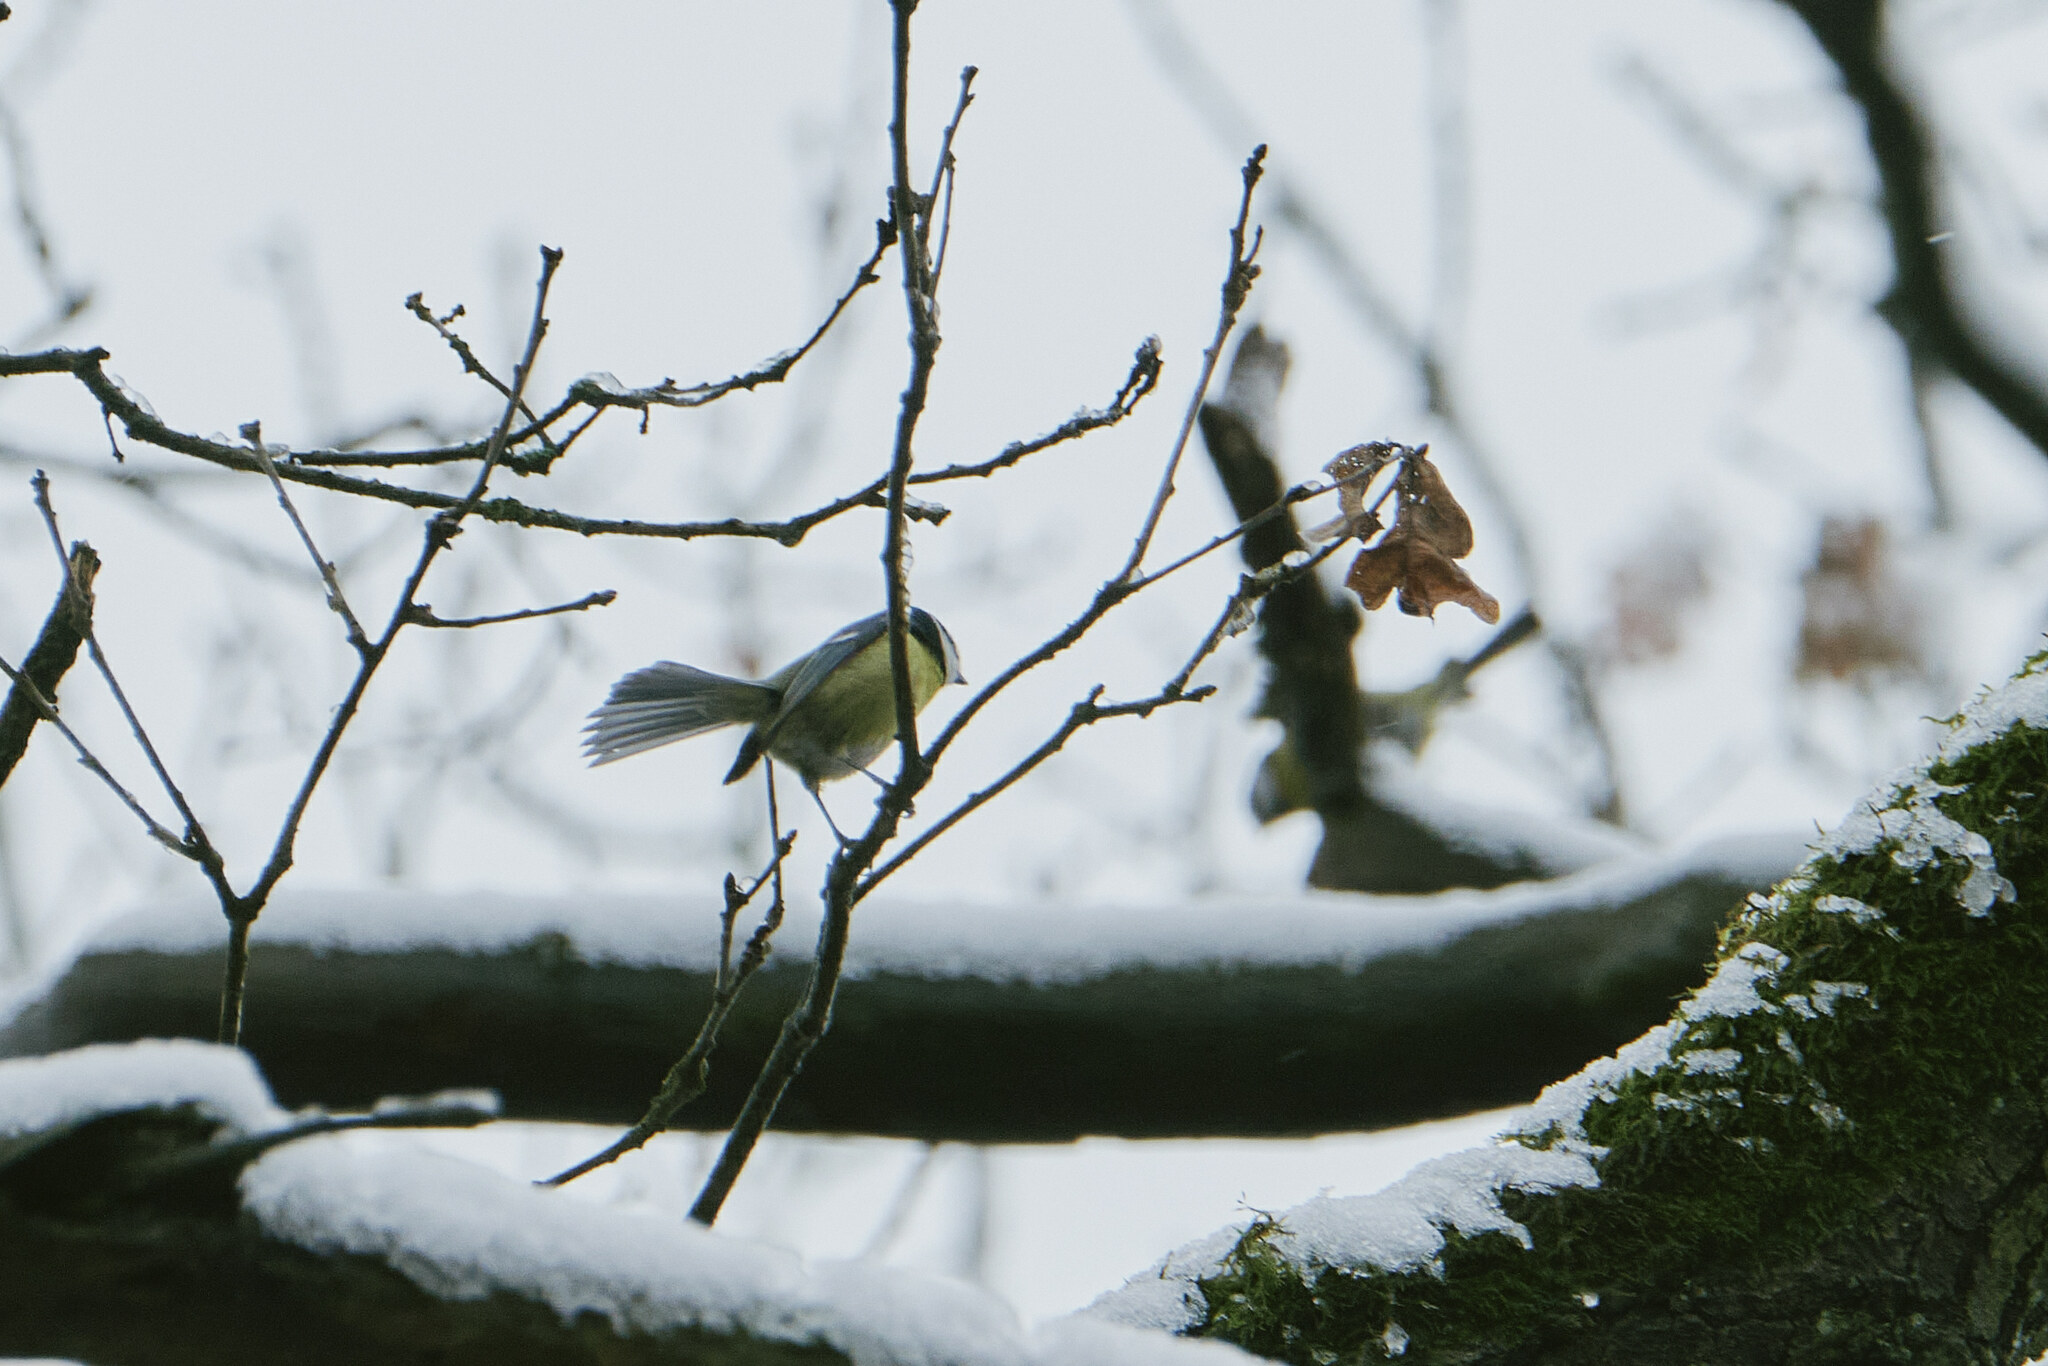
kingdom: Animalia
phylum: Chordata
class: Aves
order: Passeriformes
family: Paridae
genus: Cyanistes
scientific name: Cyanistes caeruleus
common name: Eurasian blue tit
